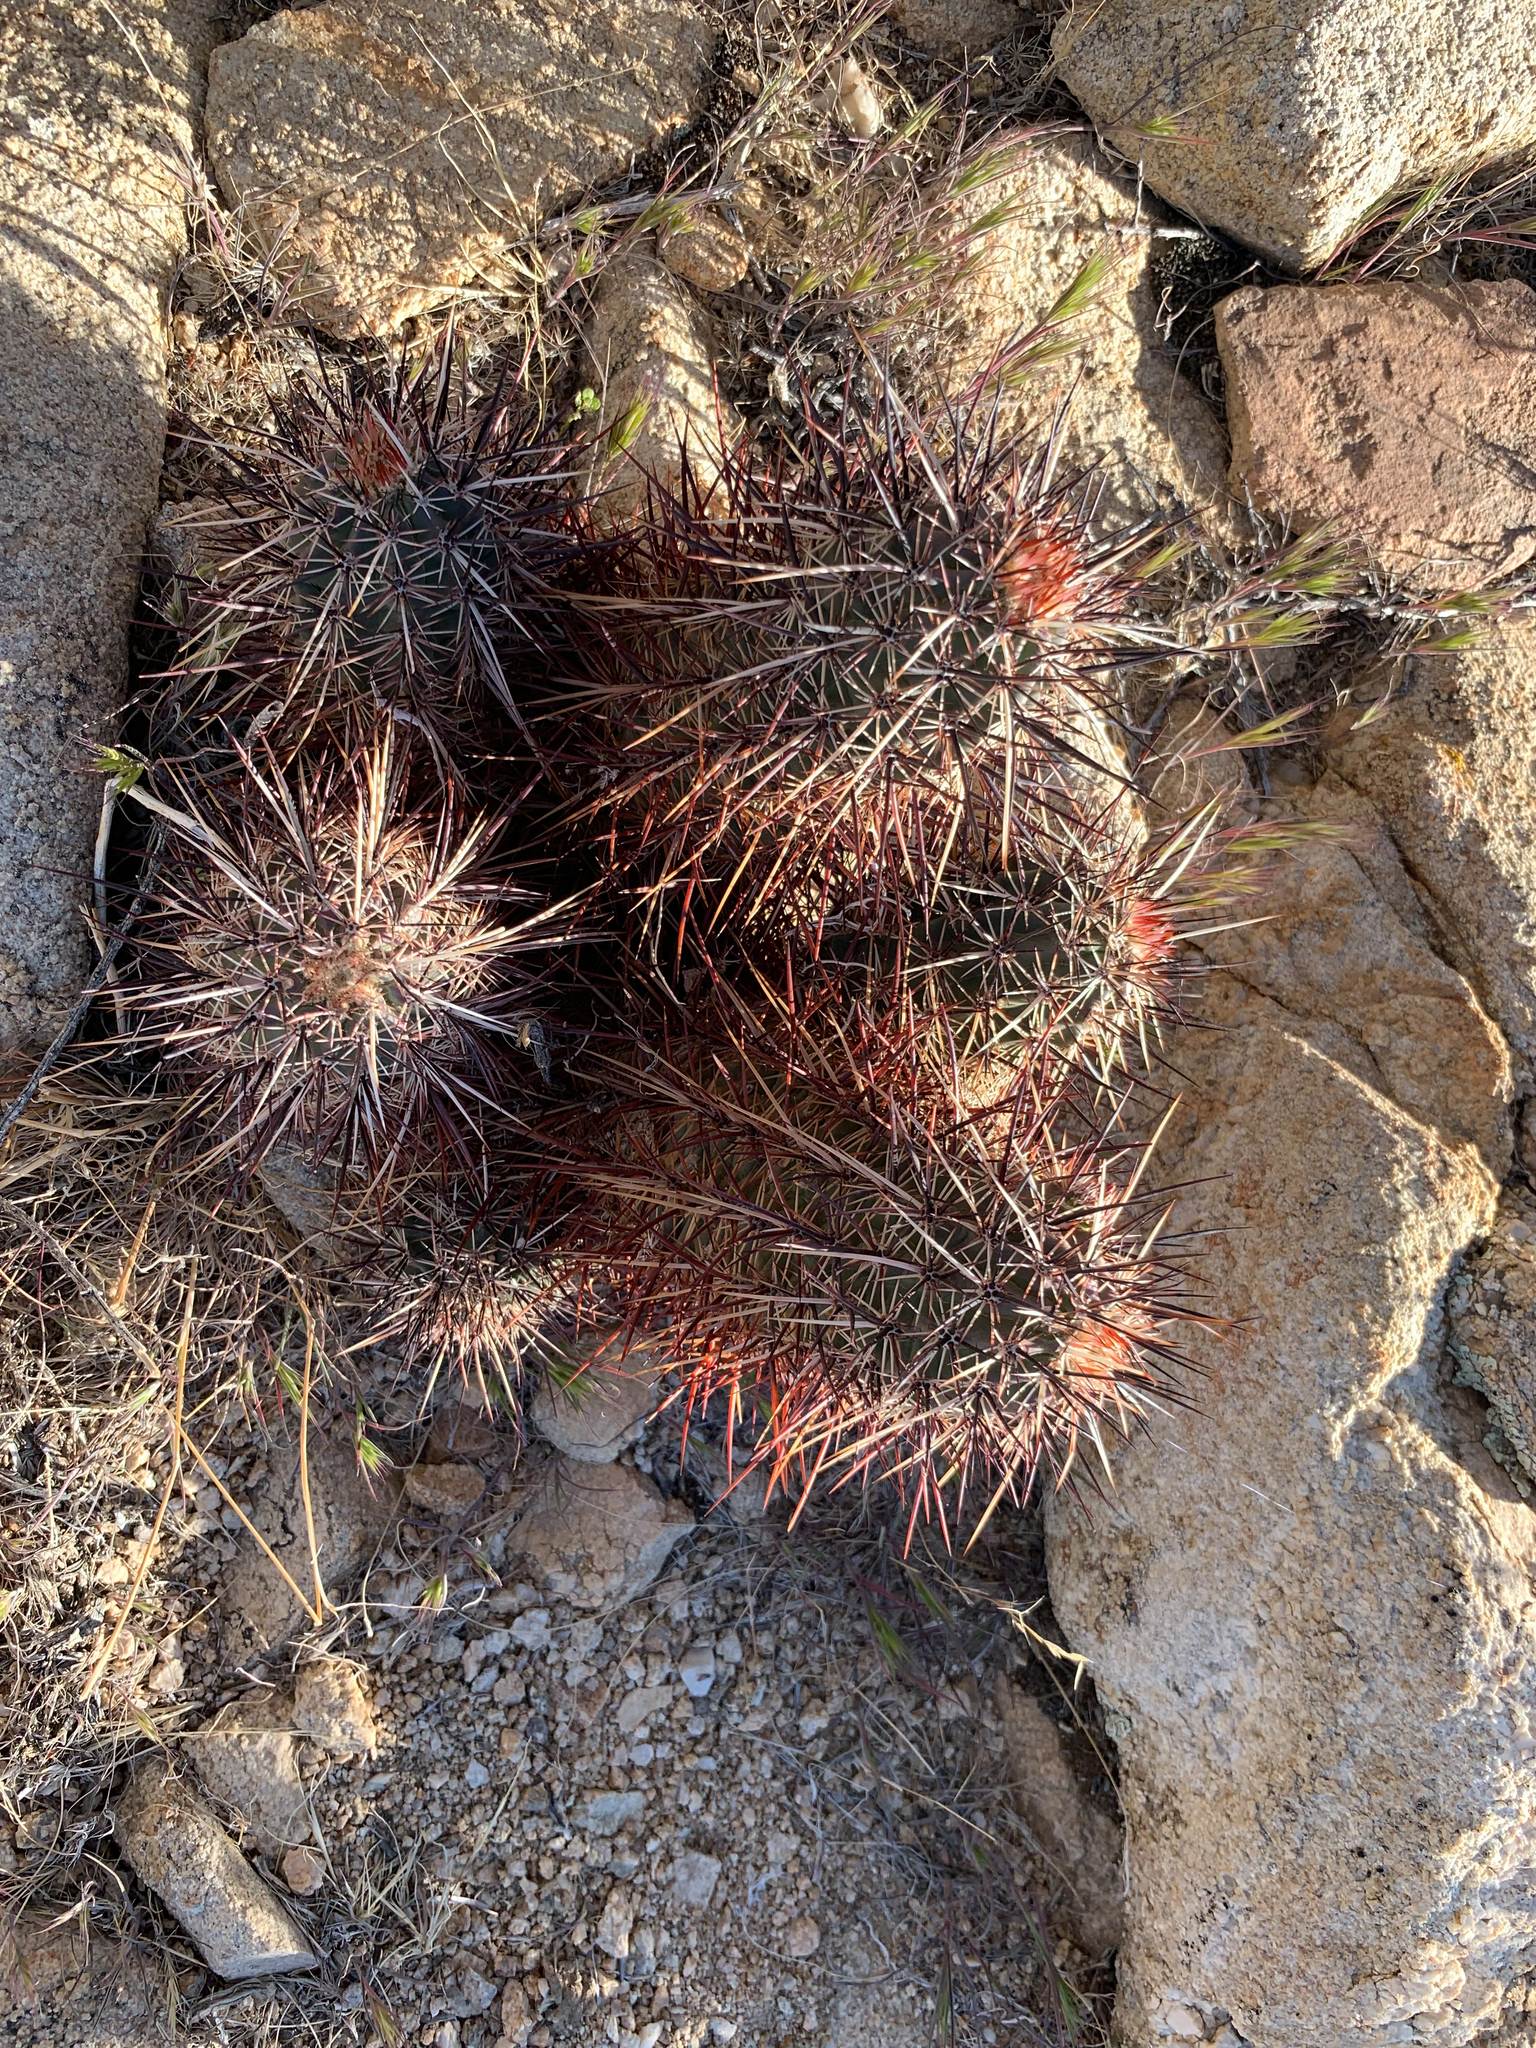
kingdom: Plantae
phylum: Tracheophyta
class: Magnoliopsida
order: Caryophyllales
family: Cactaceae
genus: Echinocereus
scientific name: Echinocereus engelmannii
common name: Engelmann's hedgehog cactus
